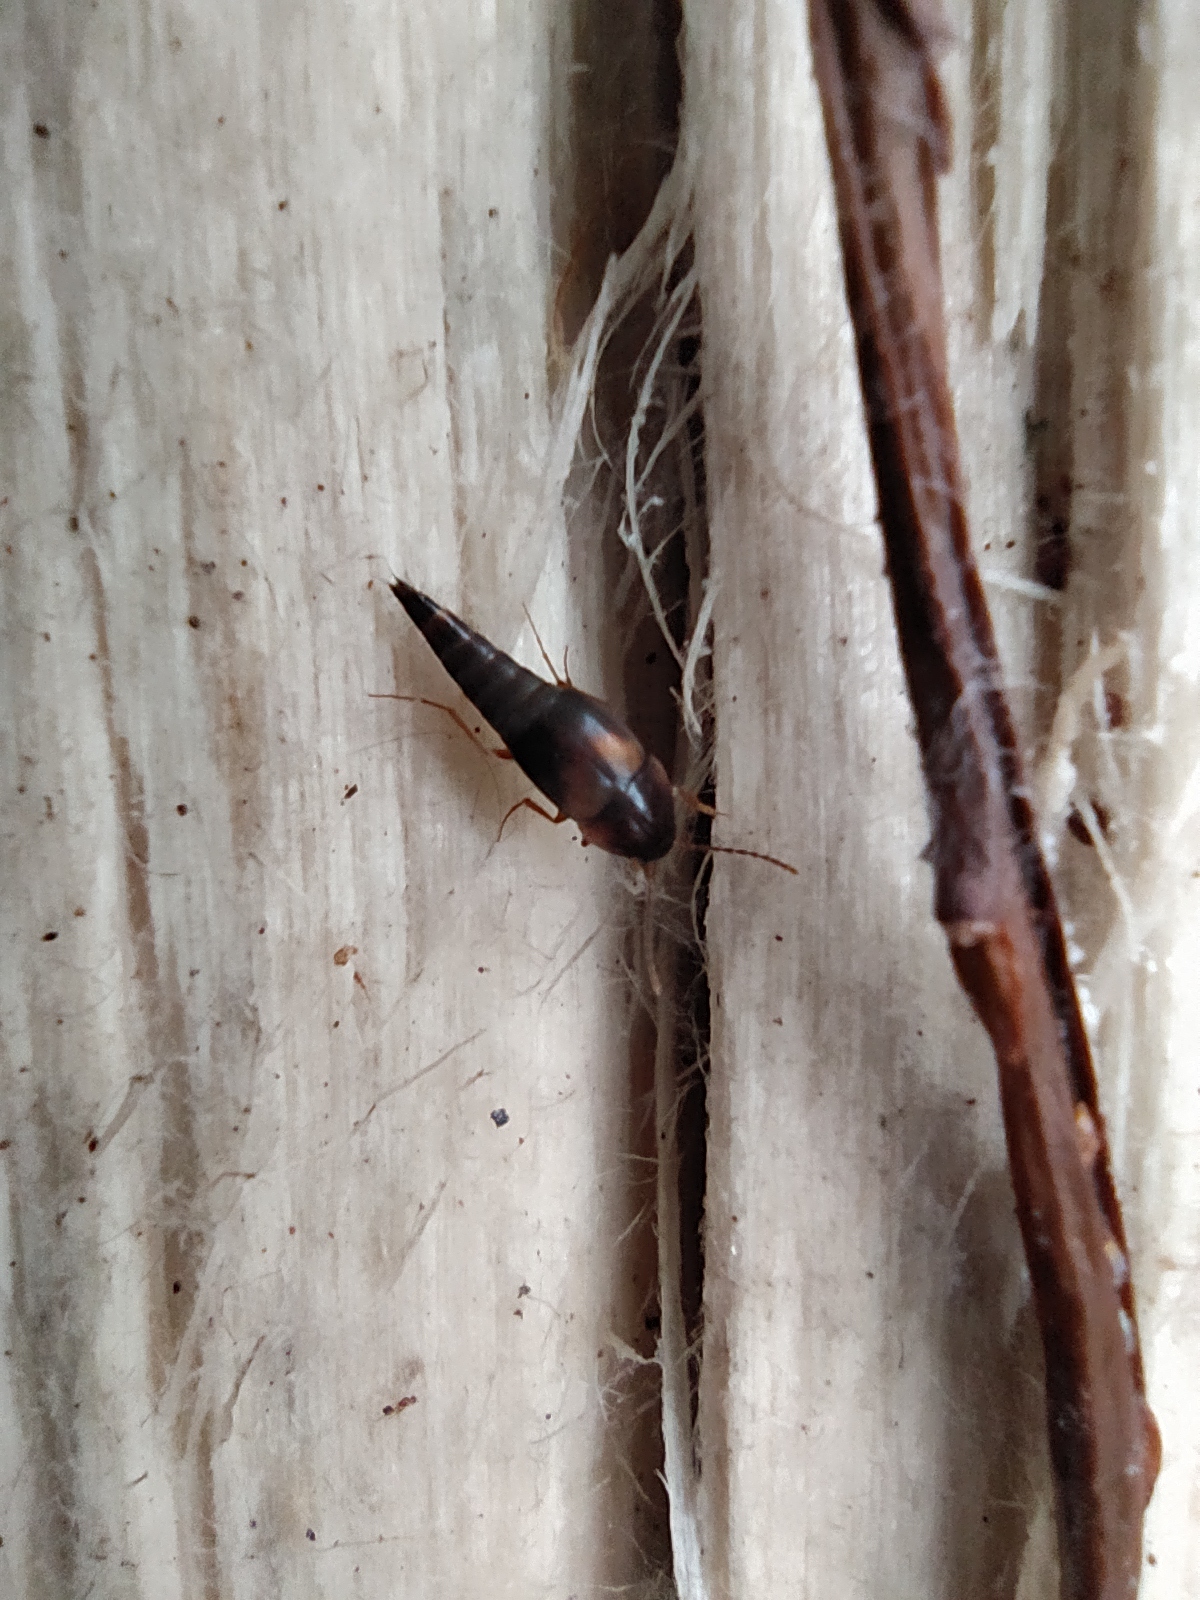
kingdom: Animalia
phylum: Arthropoda
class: Insecta
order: Coleoptera
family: Staphylinidae
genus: Sepedophilus
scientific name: Sepedophilus littoreus
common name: Staph beetle
